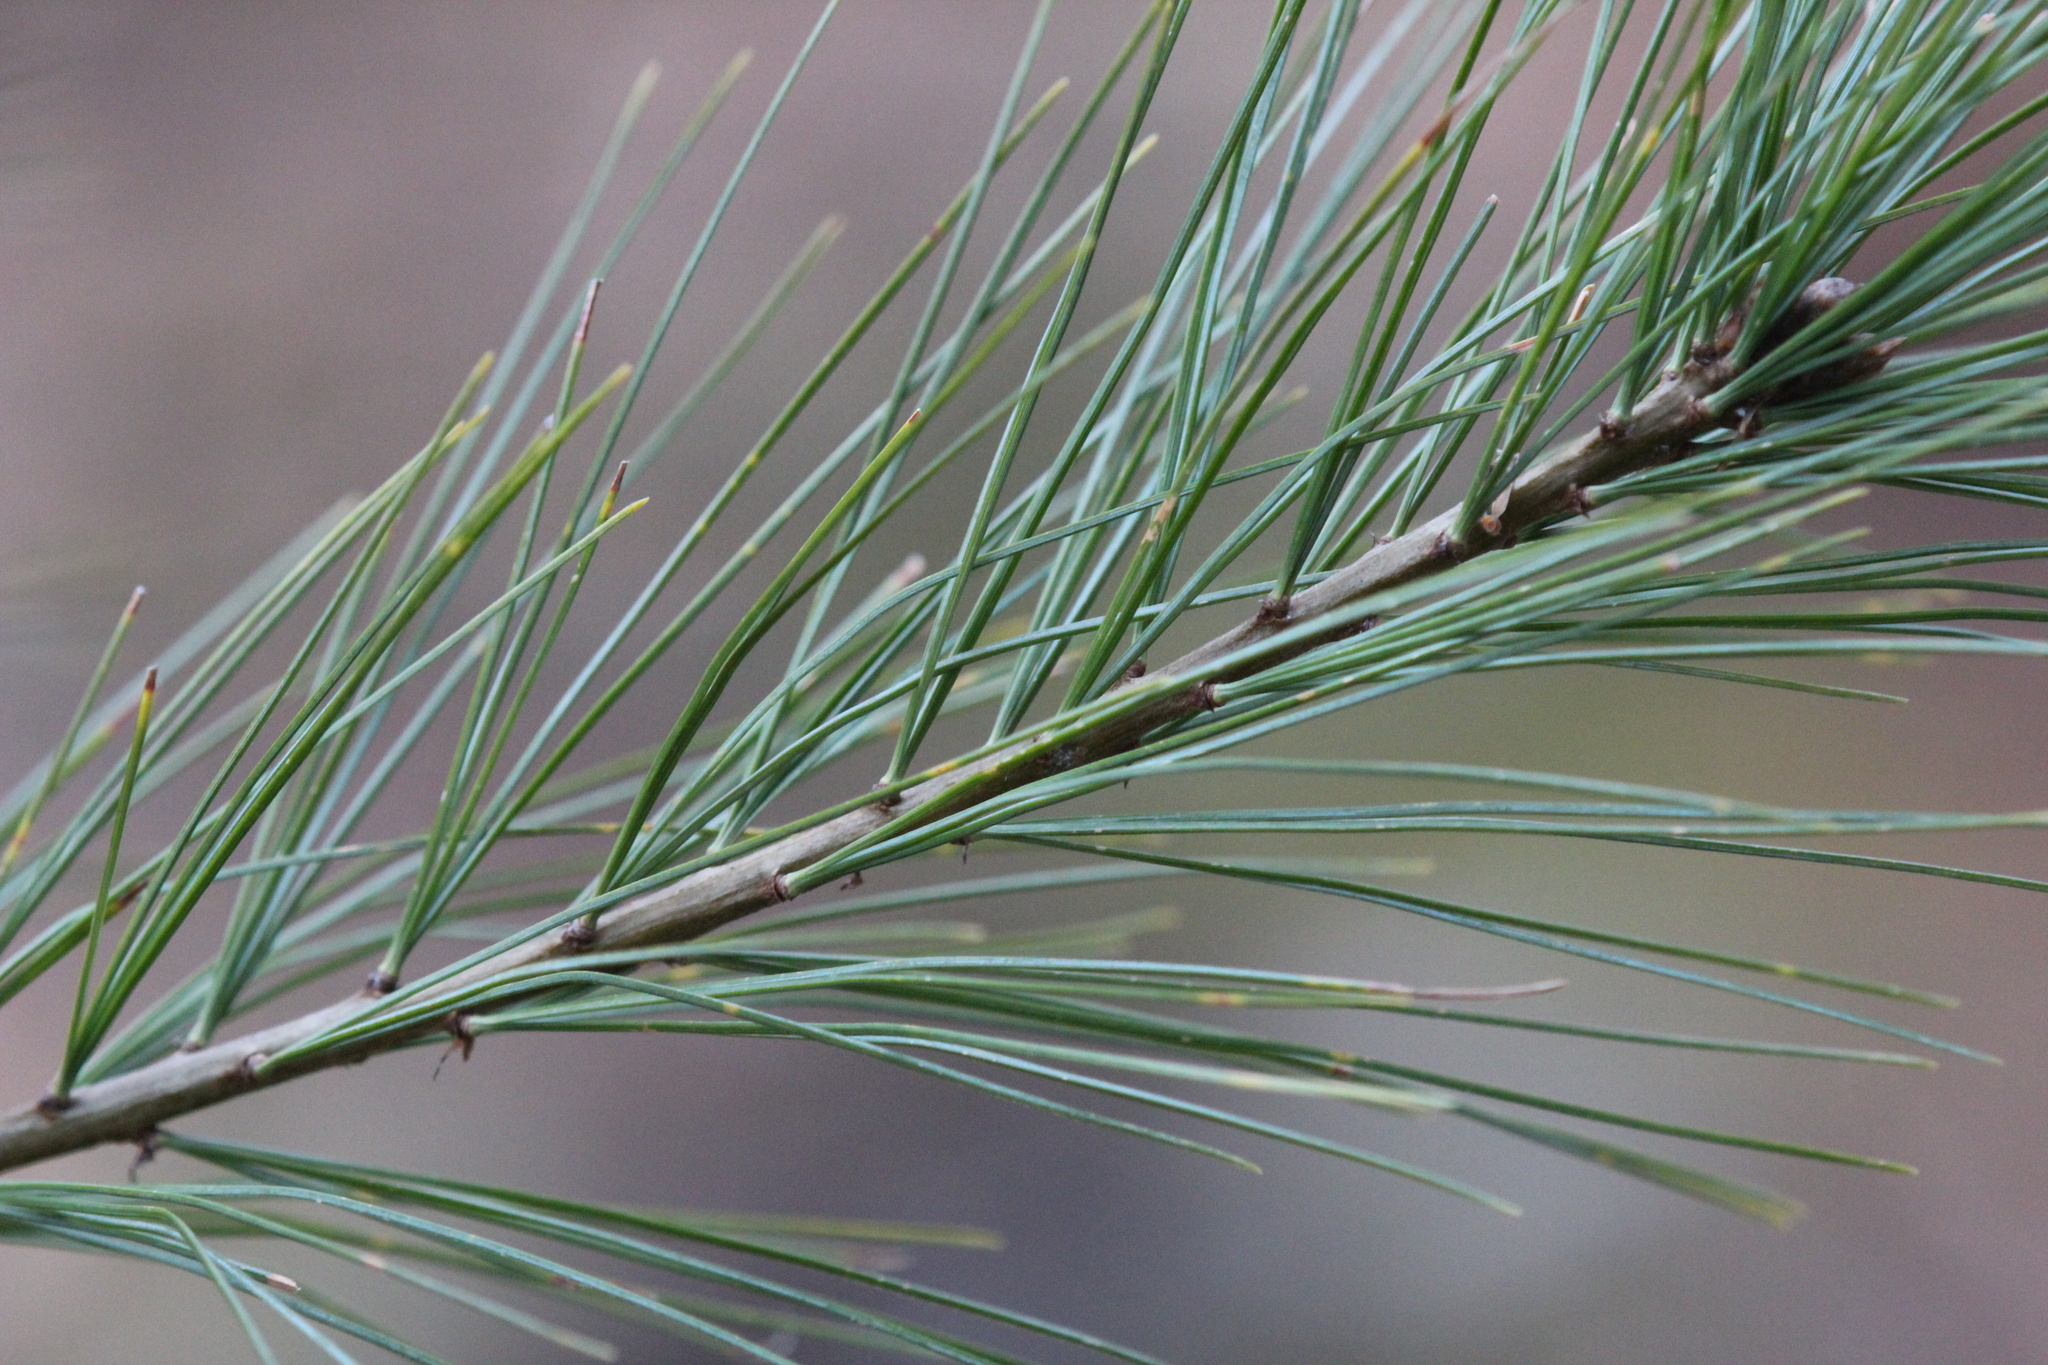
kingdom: Plantae
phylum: Tracheophyta
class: Pinopsida
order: Pinales
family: Pinaceae
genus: Pinus
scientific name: Pinus strobus
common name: Weymouth pine
